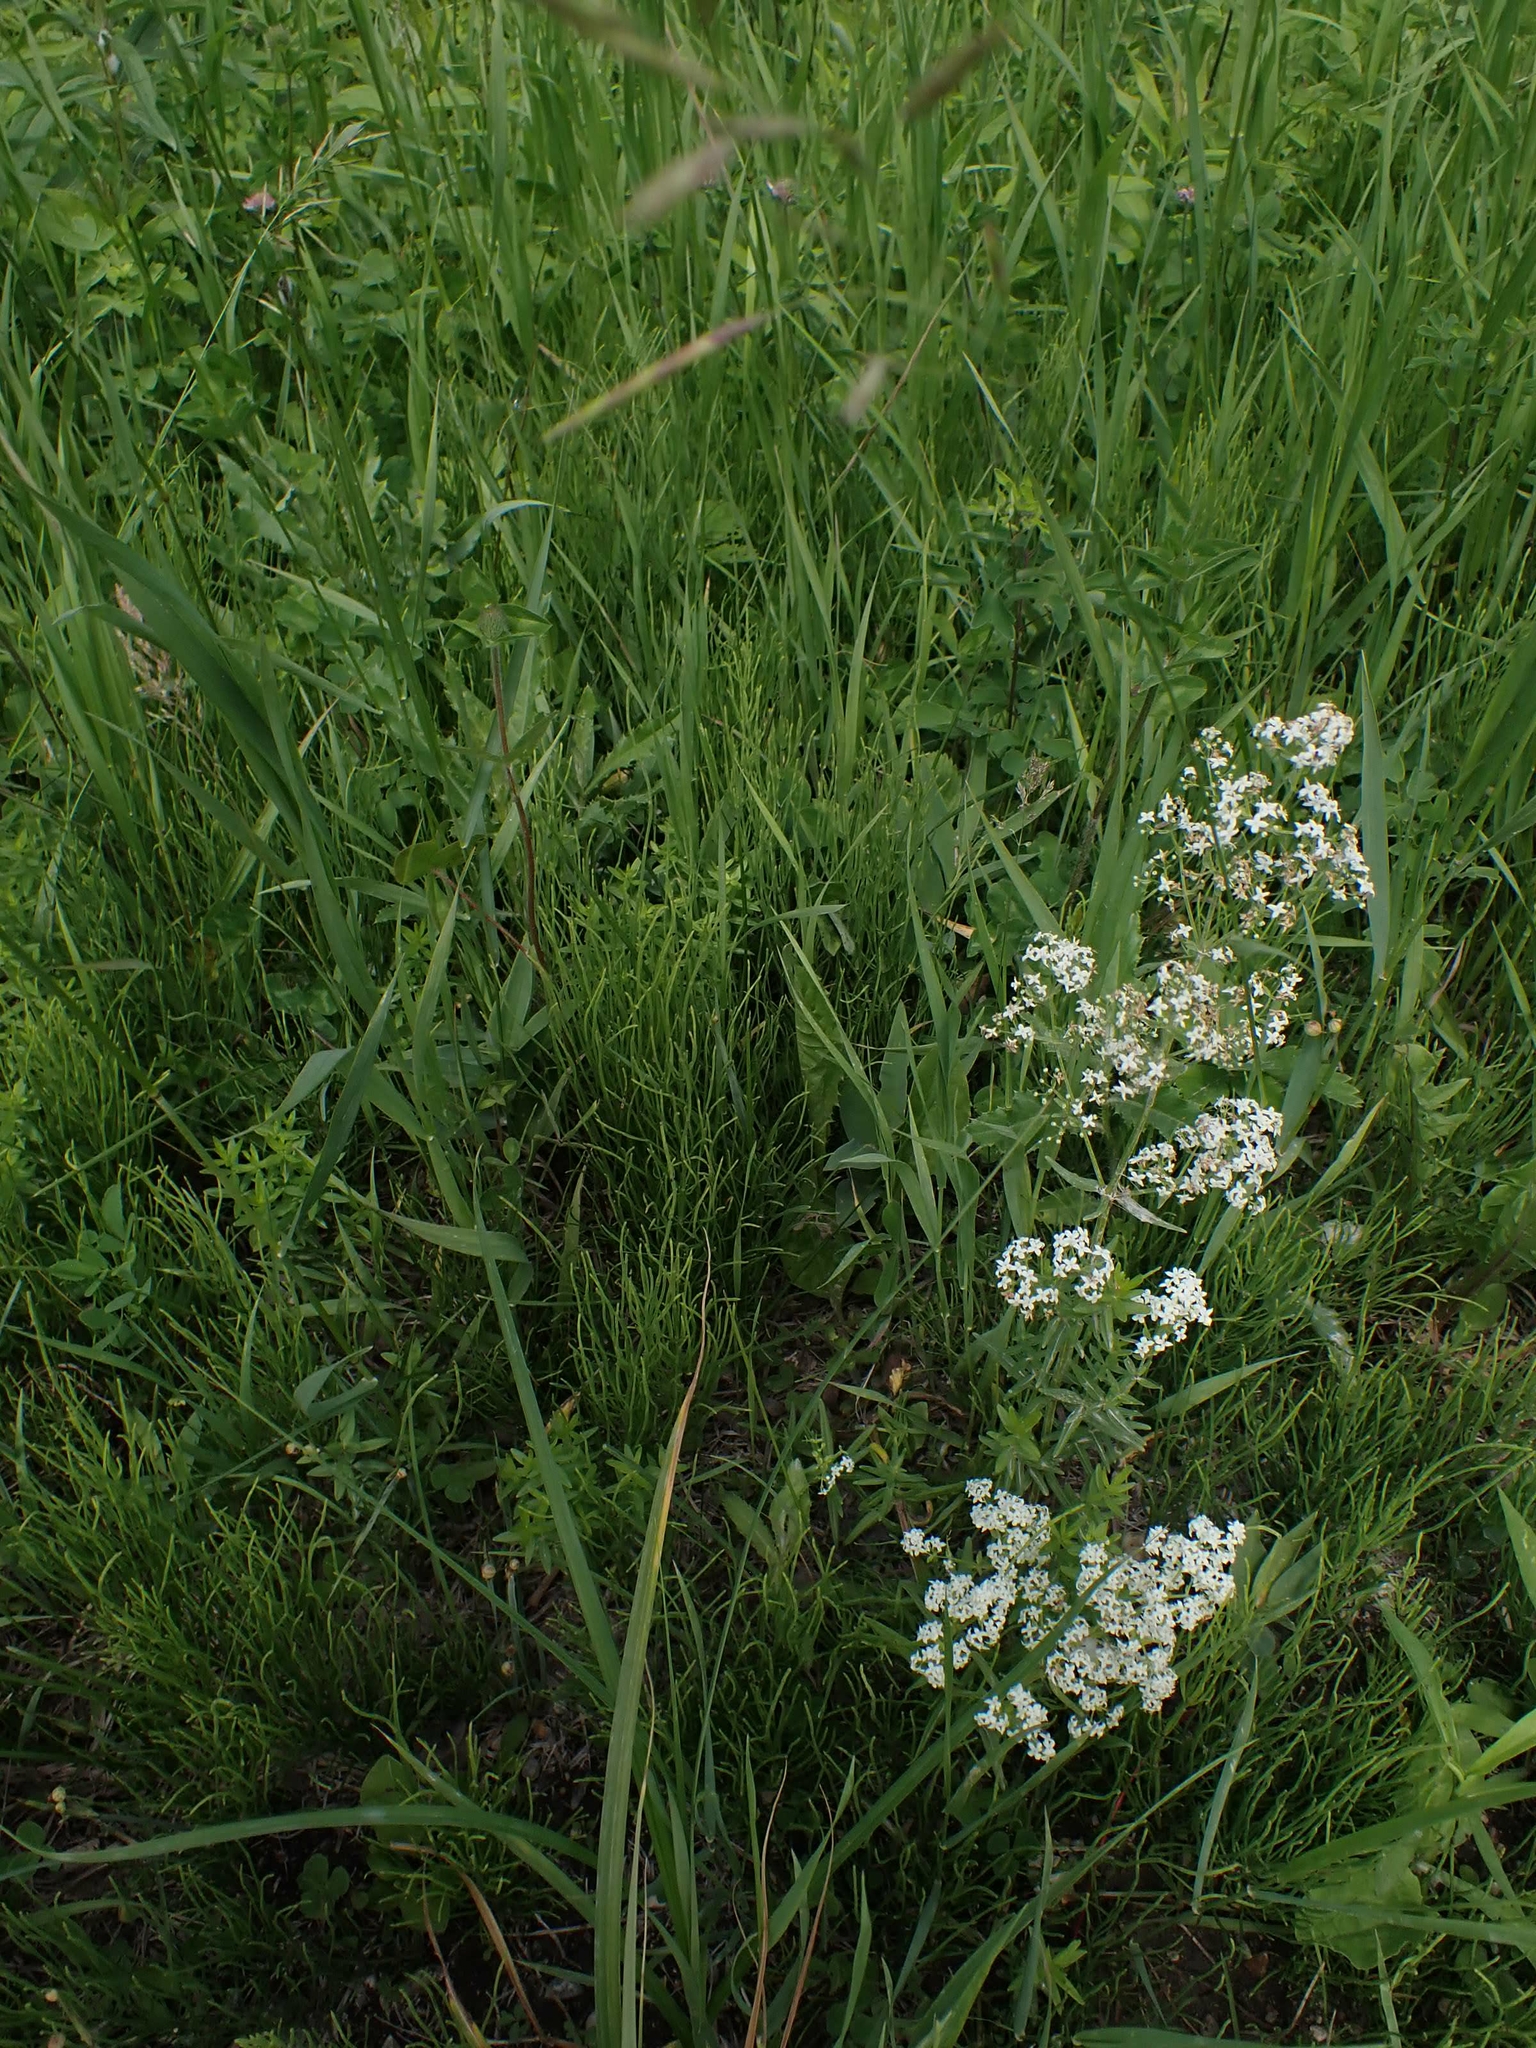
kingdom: Plantae
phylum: Tracheophyta
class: Magnoliopsida
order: Gentianales
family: Rubiaceae
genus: Galium
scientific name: Galium boreale
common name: Northern bedstraw
